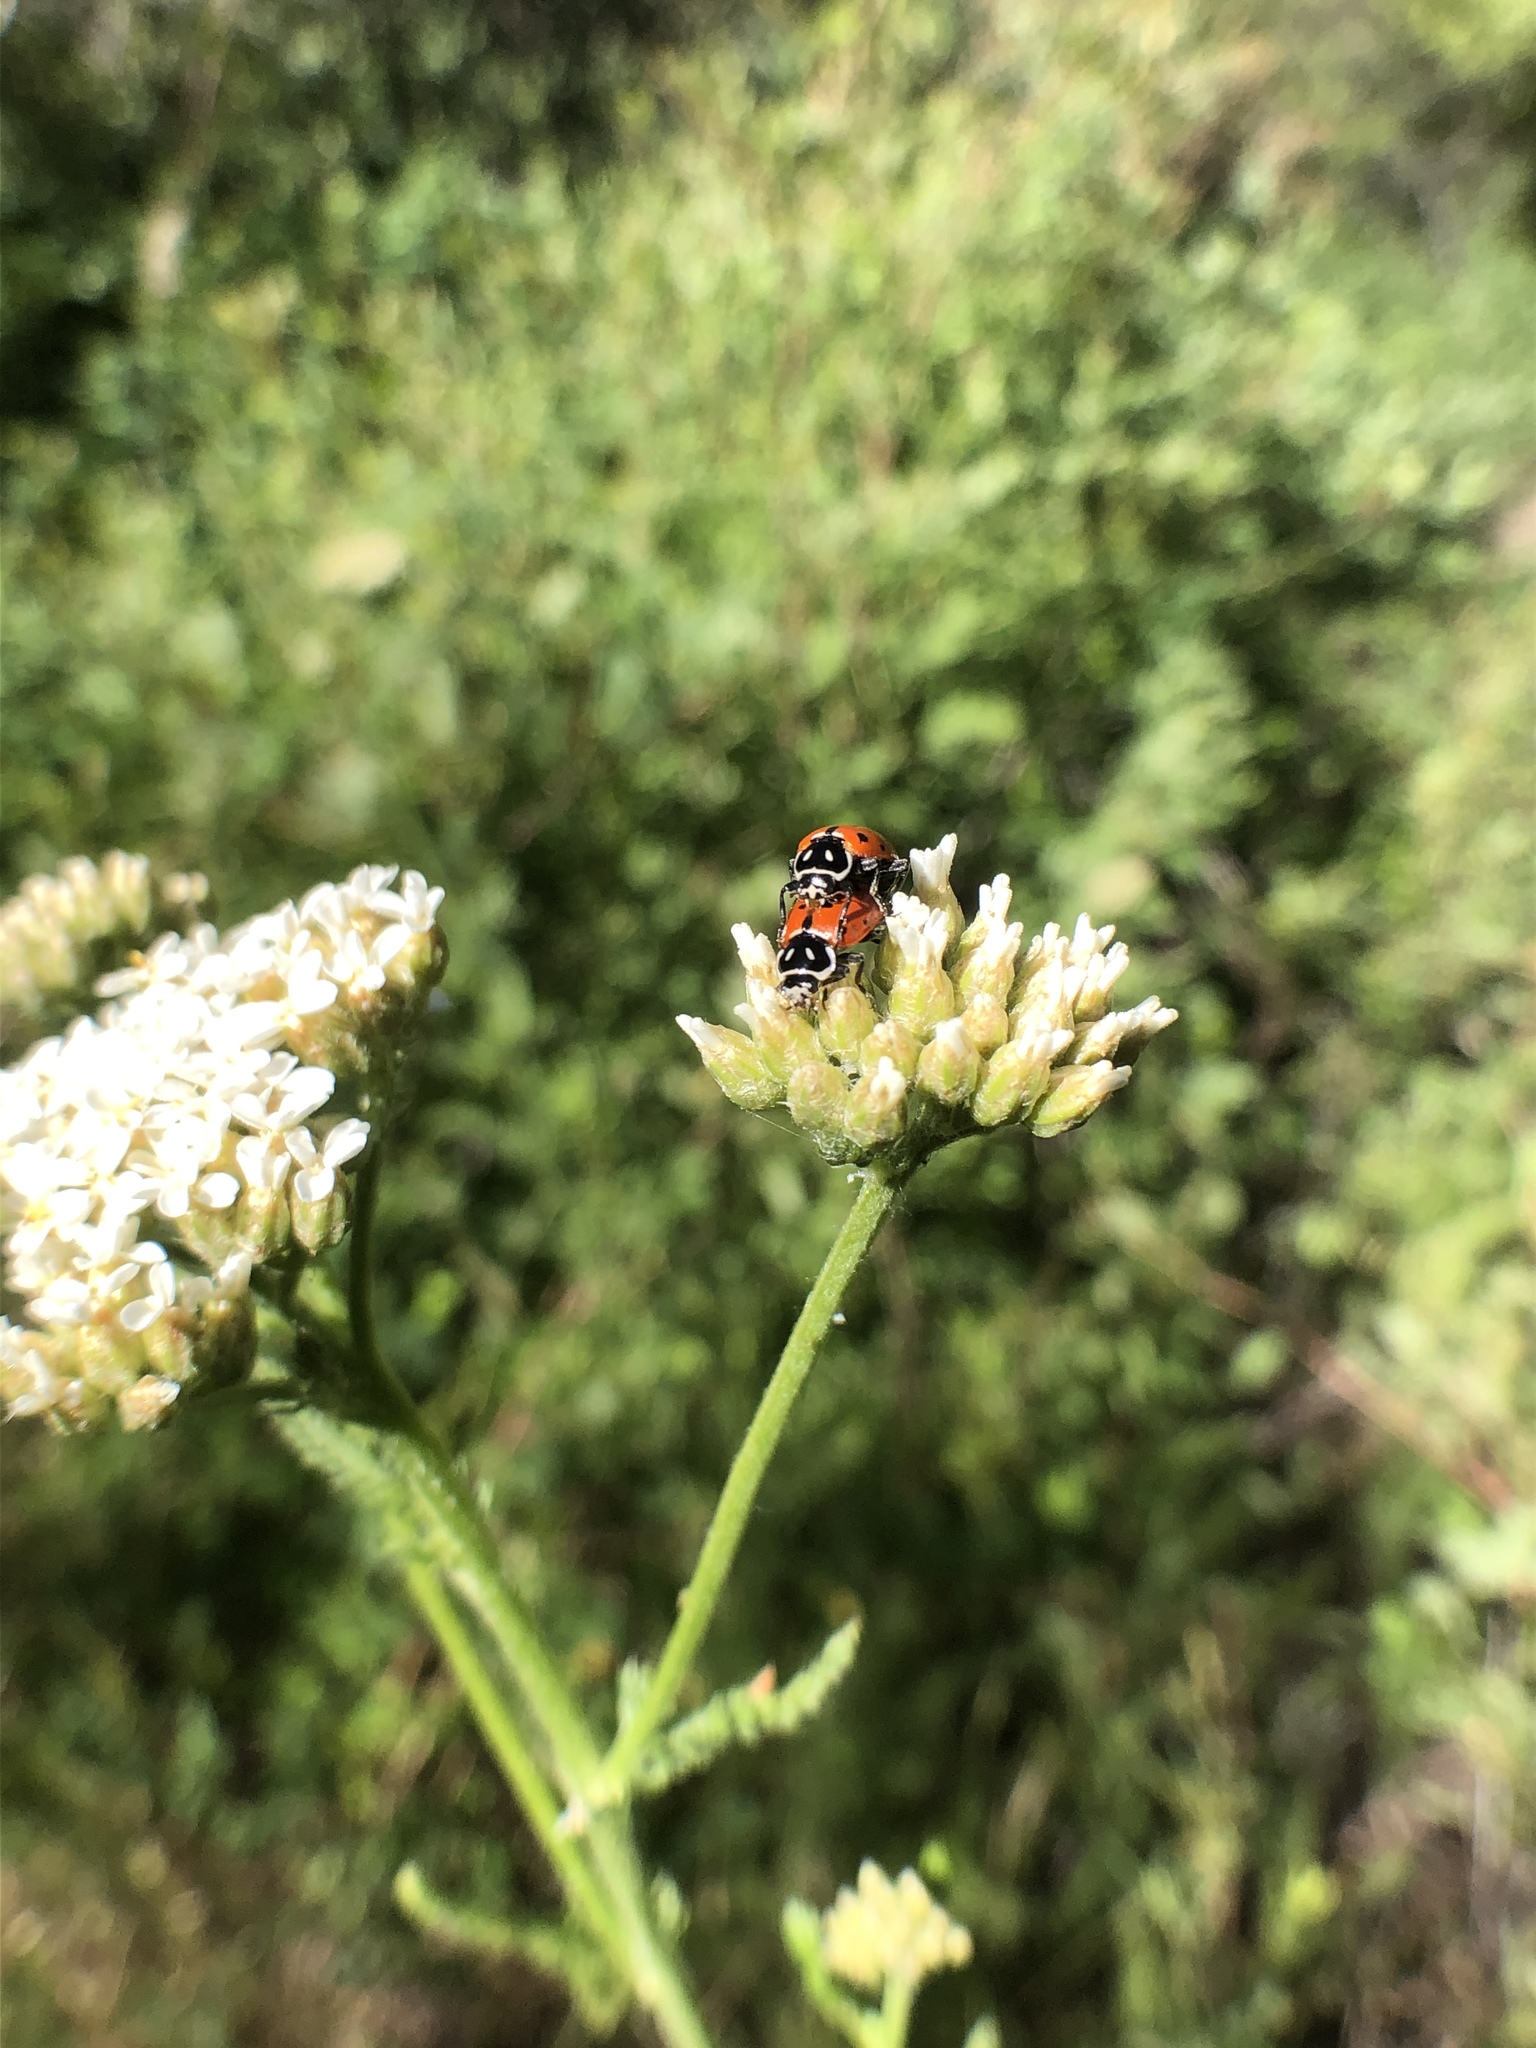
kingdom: Animalia
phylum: Arthropoda
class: Insecta
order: Coleoptera
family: Coccinellidae
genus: Hippodamia
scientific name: Hippodamia convergens
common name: Convergent lady beetle
